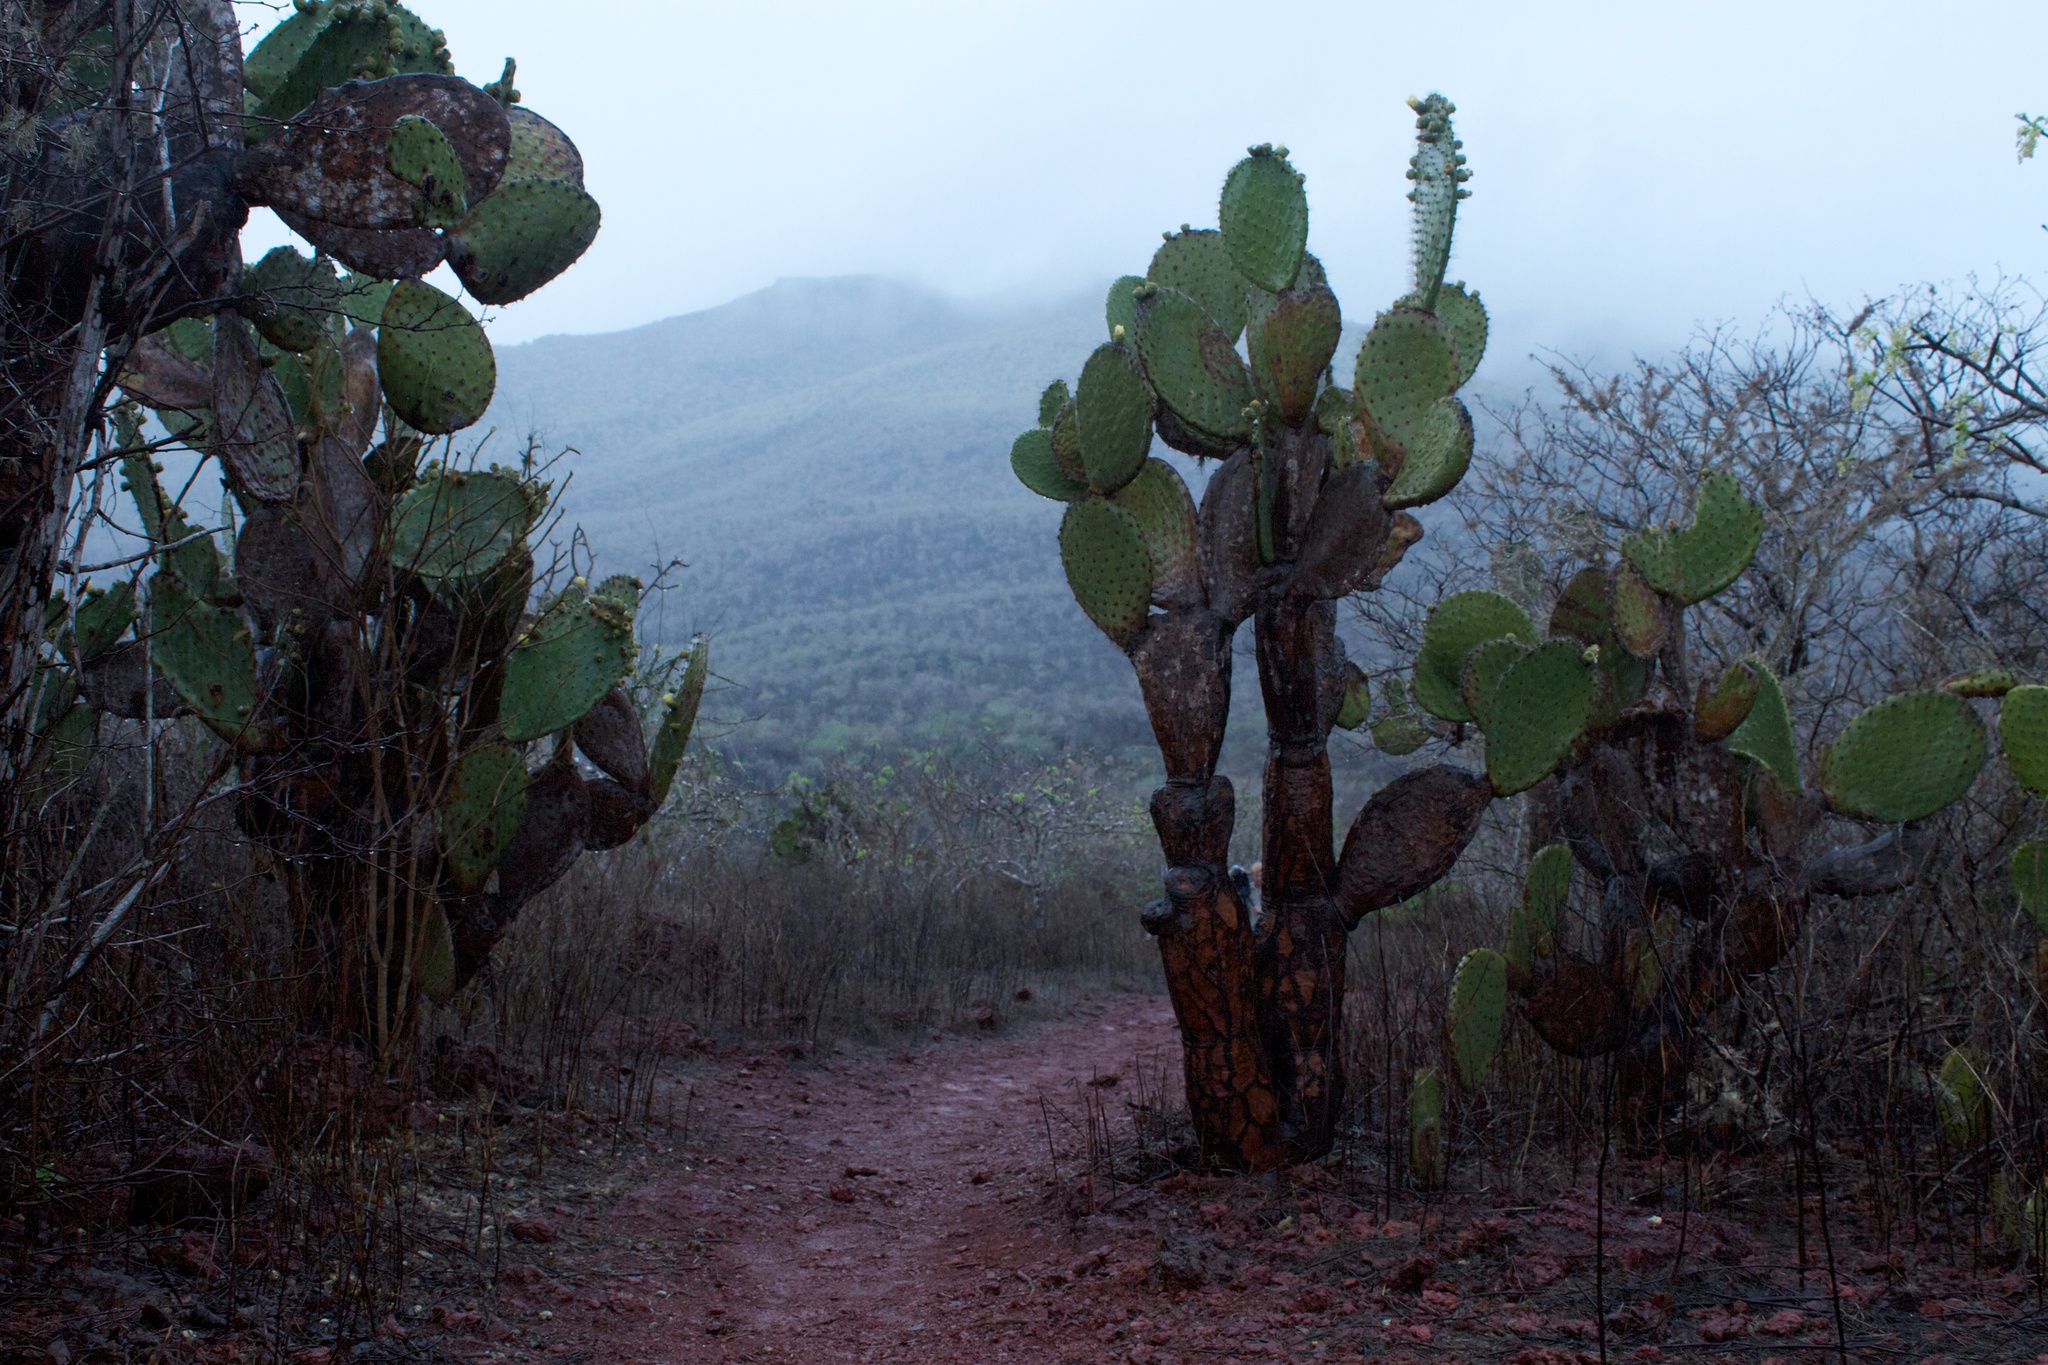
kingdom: Plantae
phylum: Tracheophyta
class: Magnoliopsida
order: Caryophyllales
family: Cactaceae
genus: Opuntia
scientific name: Opuntia galapageia
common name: Galápagos prickly pear
